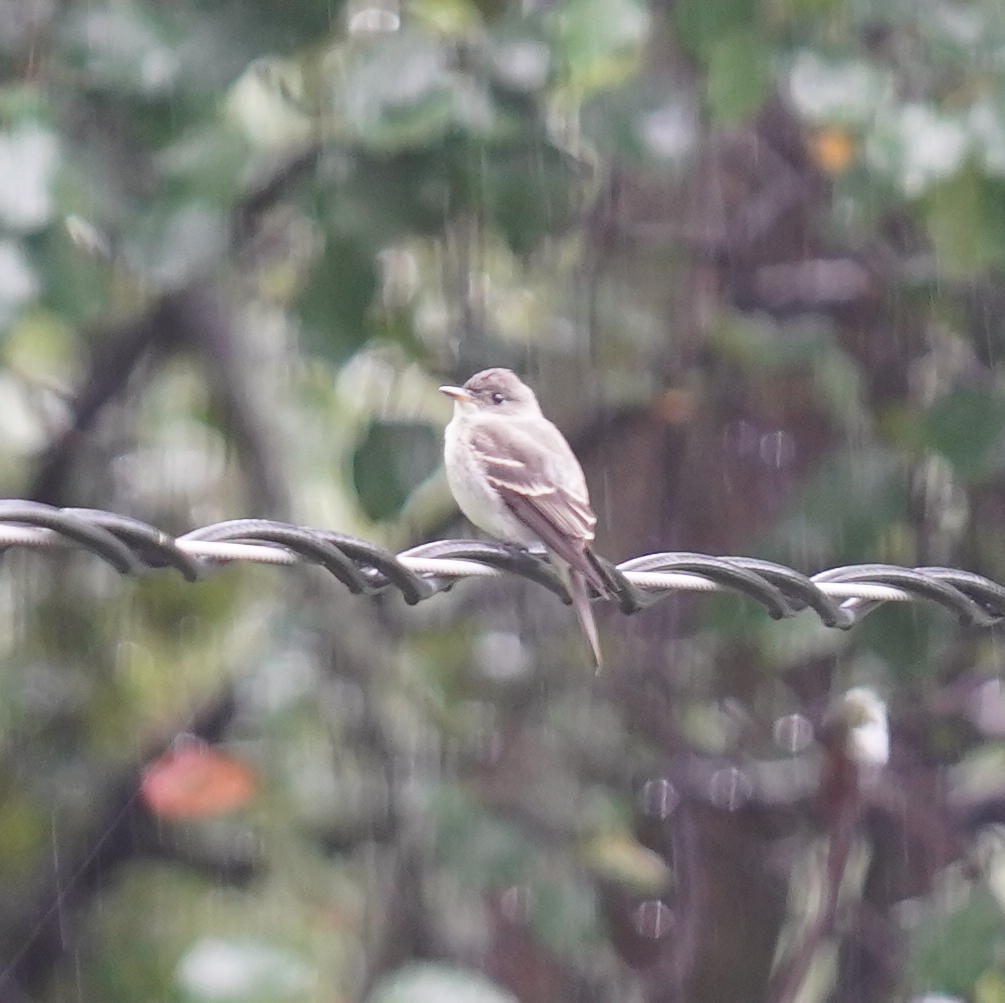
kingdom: Animalia
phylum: Chordata
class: Aves
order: Passeriformes
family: Tyrannidae
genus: Contopus
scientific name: Contopus virens
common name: Eastern wood-pewee
